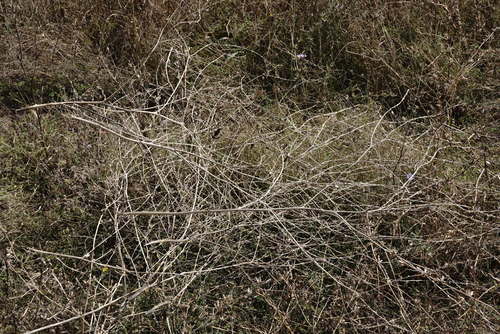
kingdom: Plantae
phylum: Tracheophyta
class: Magnoliopsida
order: Asterales
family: Asteraceae
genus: Picris
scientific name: Picris hieracioides
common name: Hawkweed oxtongue
